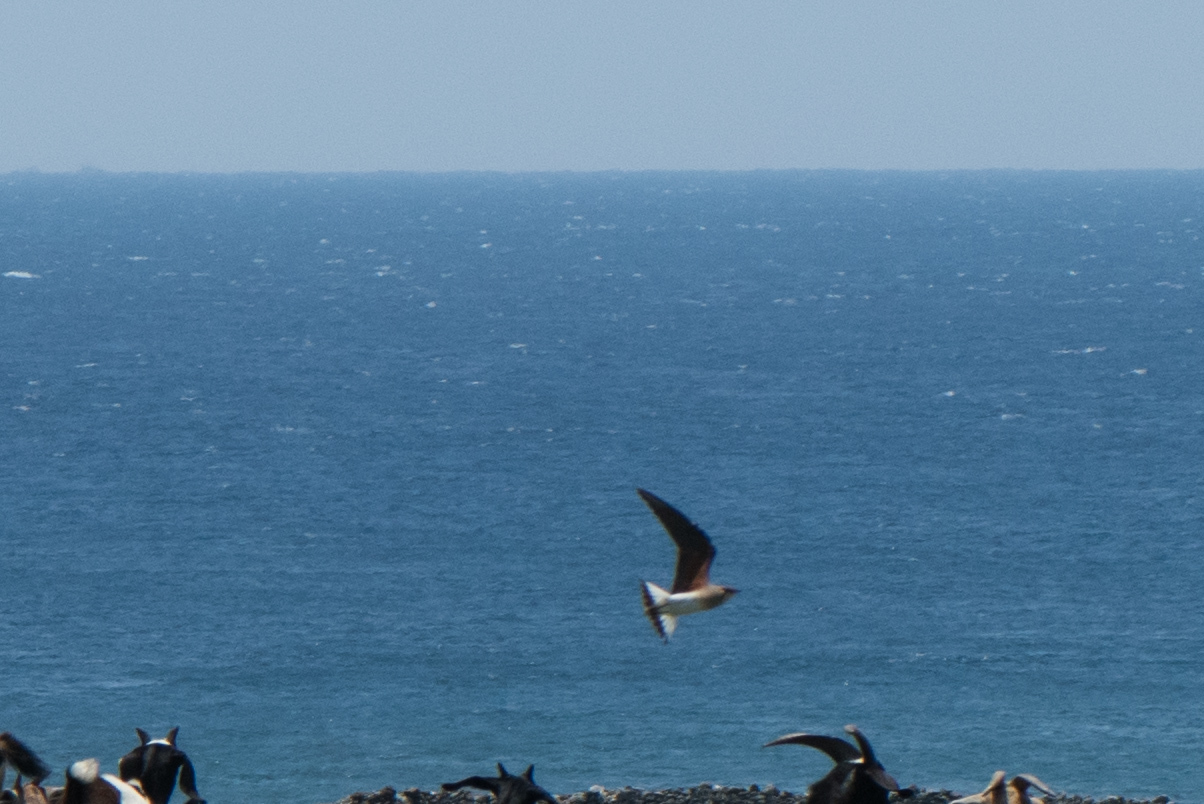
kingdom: Animalia
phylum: Chordata
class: Aves
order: Charadriiformes
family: Glareolidae
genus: Glareola
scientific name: Glareola maldivarum
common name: Oriental pratincole
